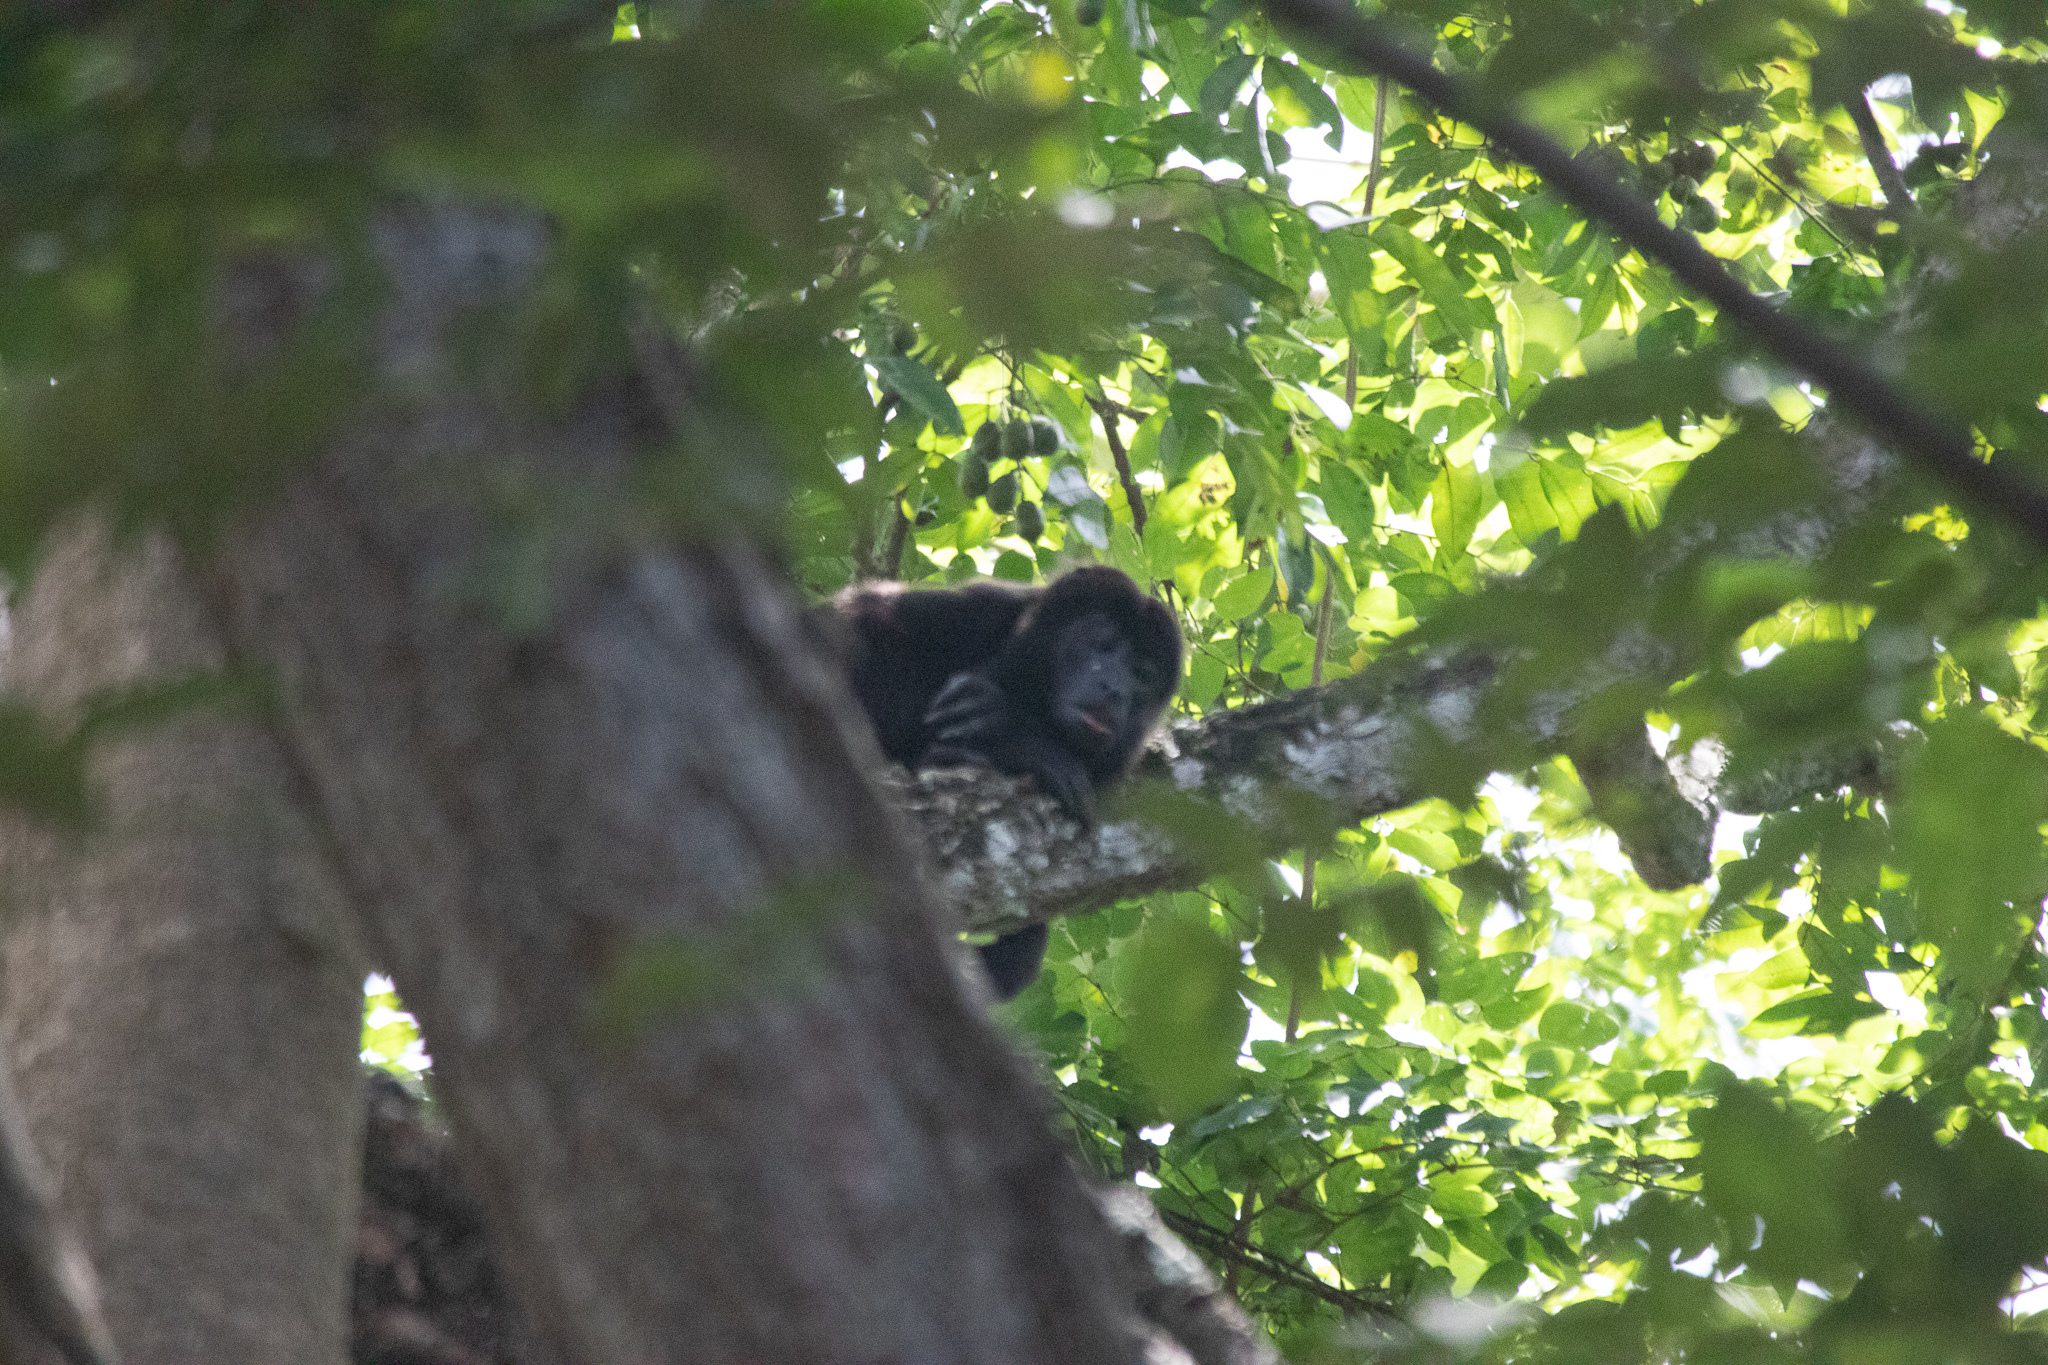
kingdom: Animalia
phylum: Chordata
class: Mammalia
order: Primates
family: Atelidae
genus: Alouatta
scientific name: Alouatta palliata
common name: Mantled howler
